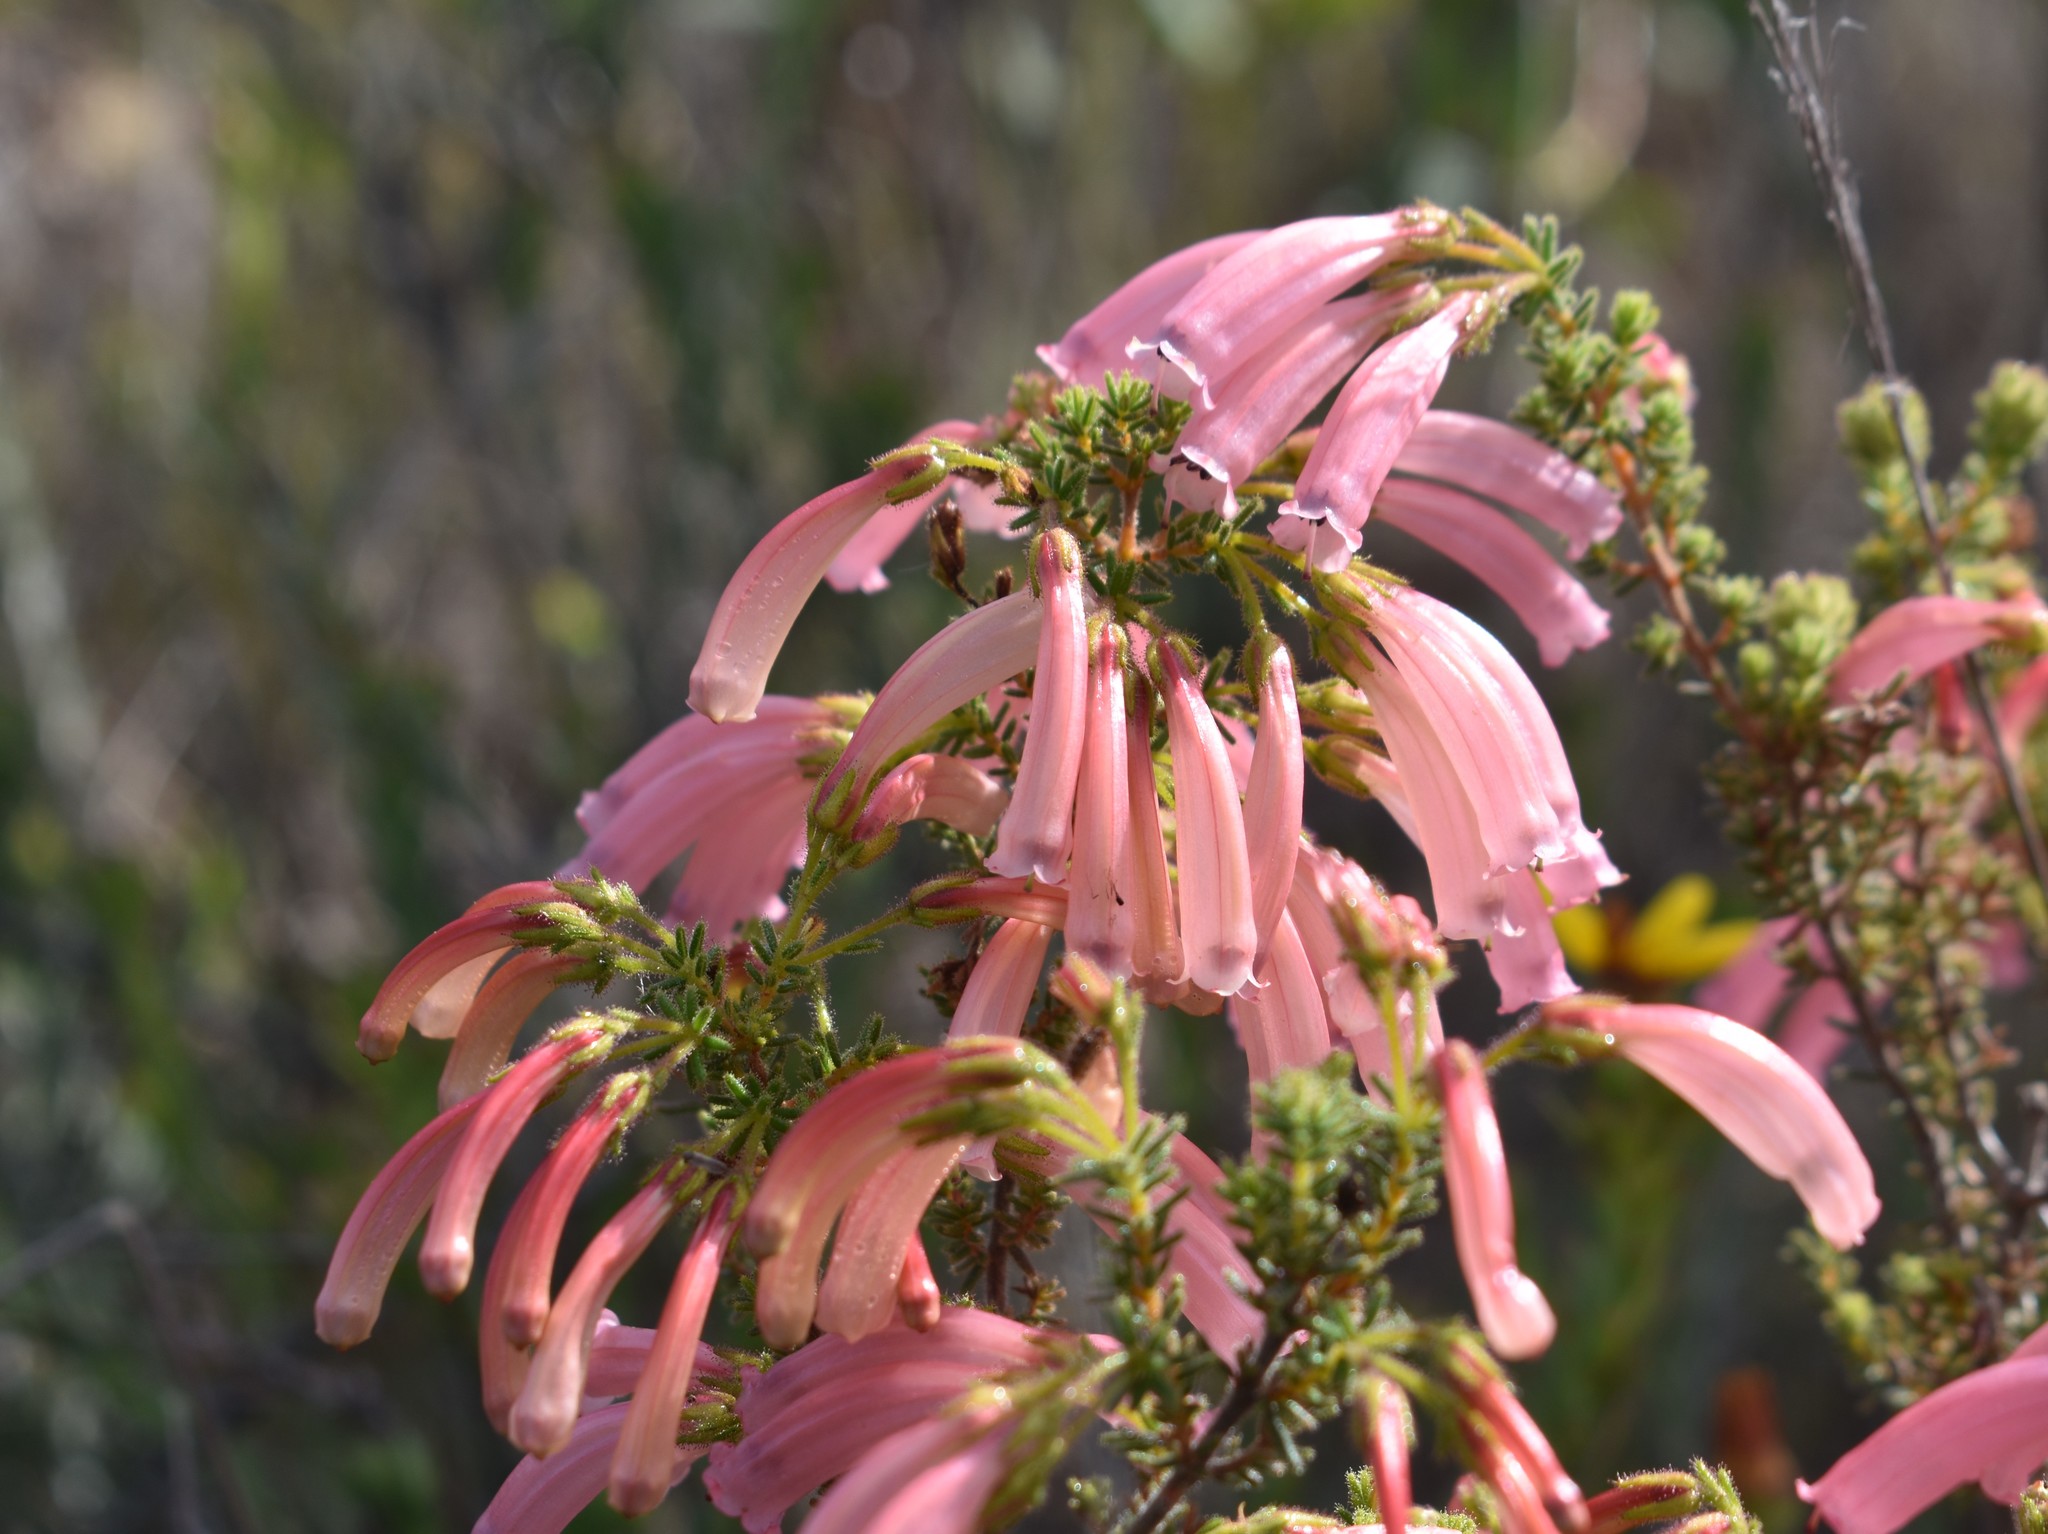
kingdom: Plantae
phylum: Tracheophyta
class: Magnoliopsida
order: Ericales
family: Ericaceae
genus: Erica
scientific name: Erica glandulosa
